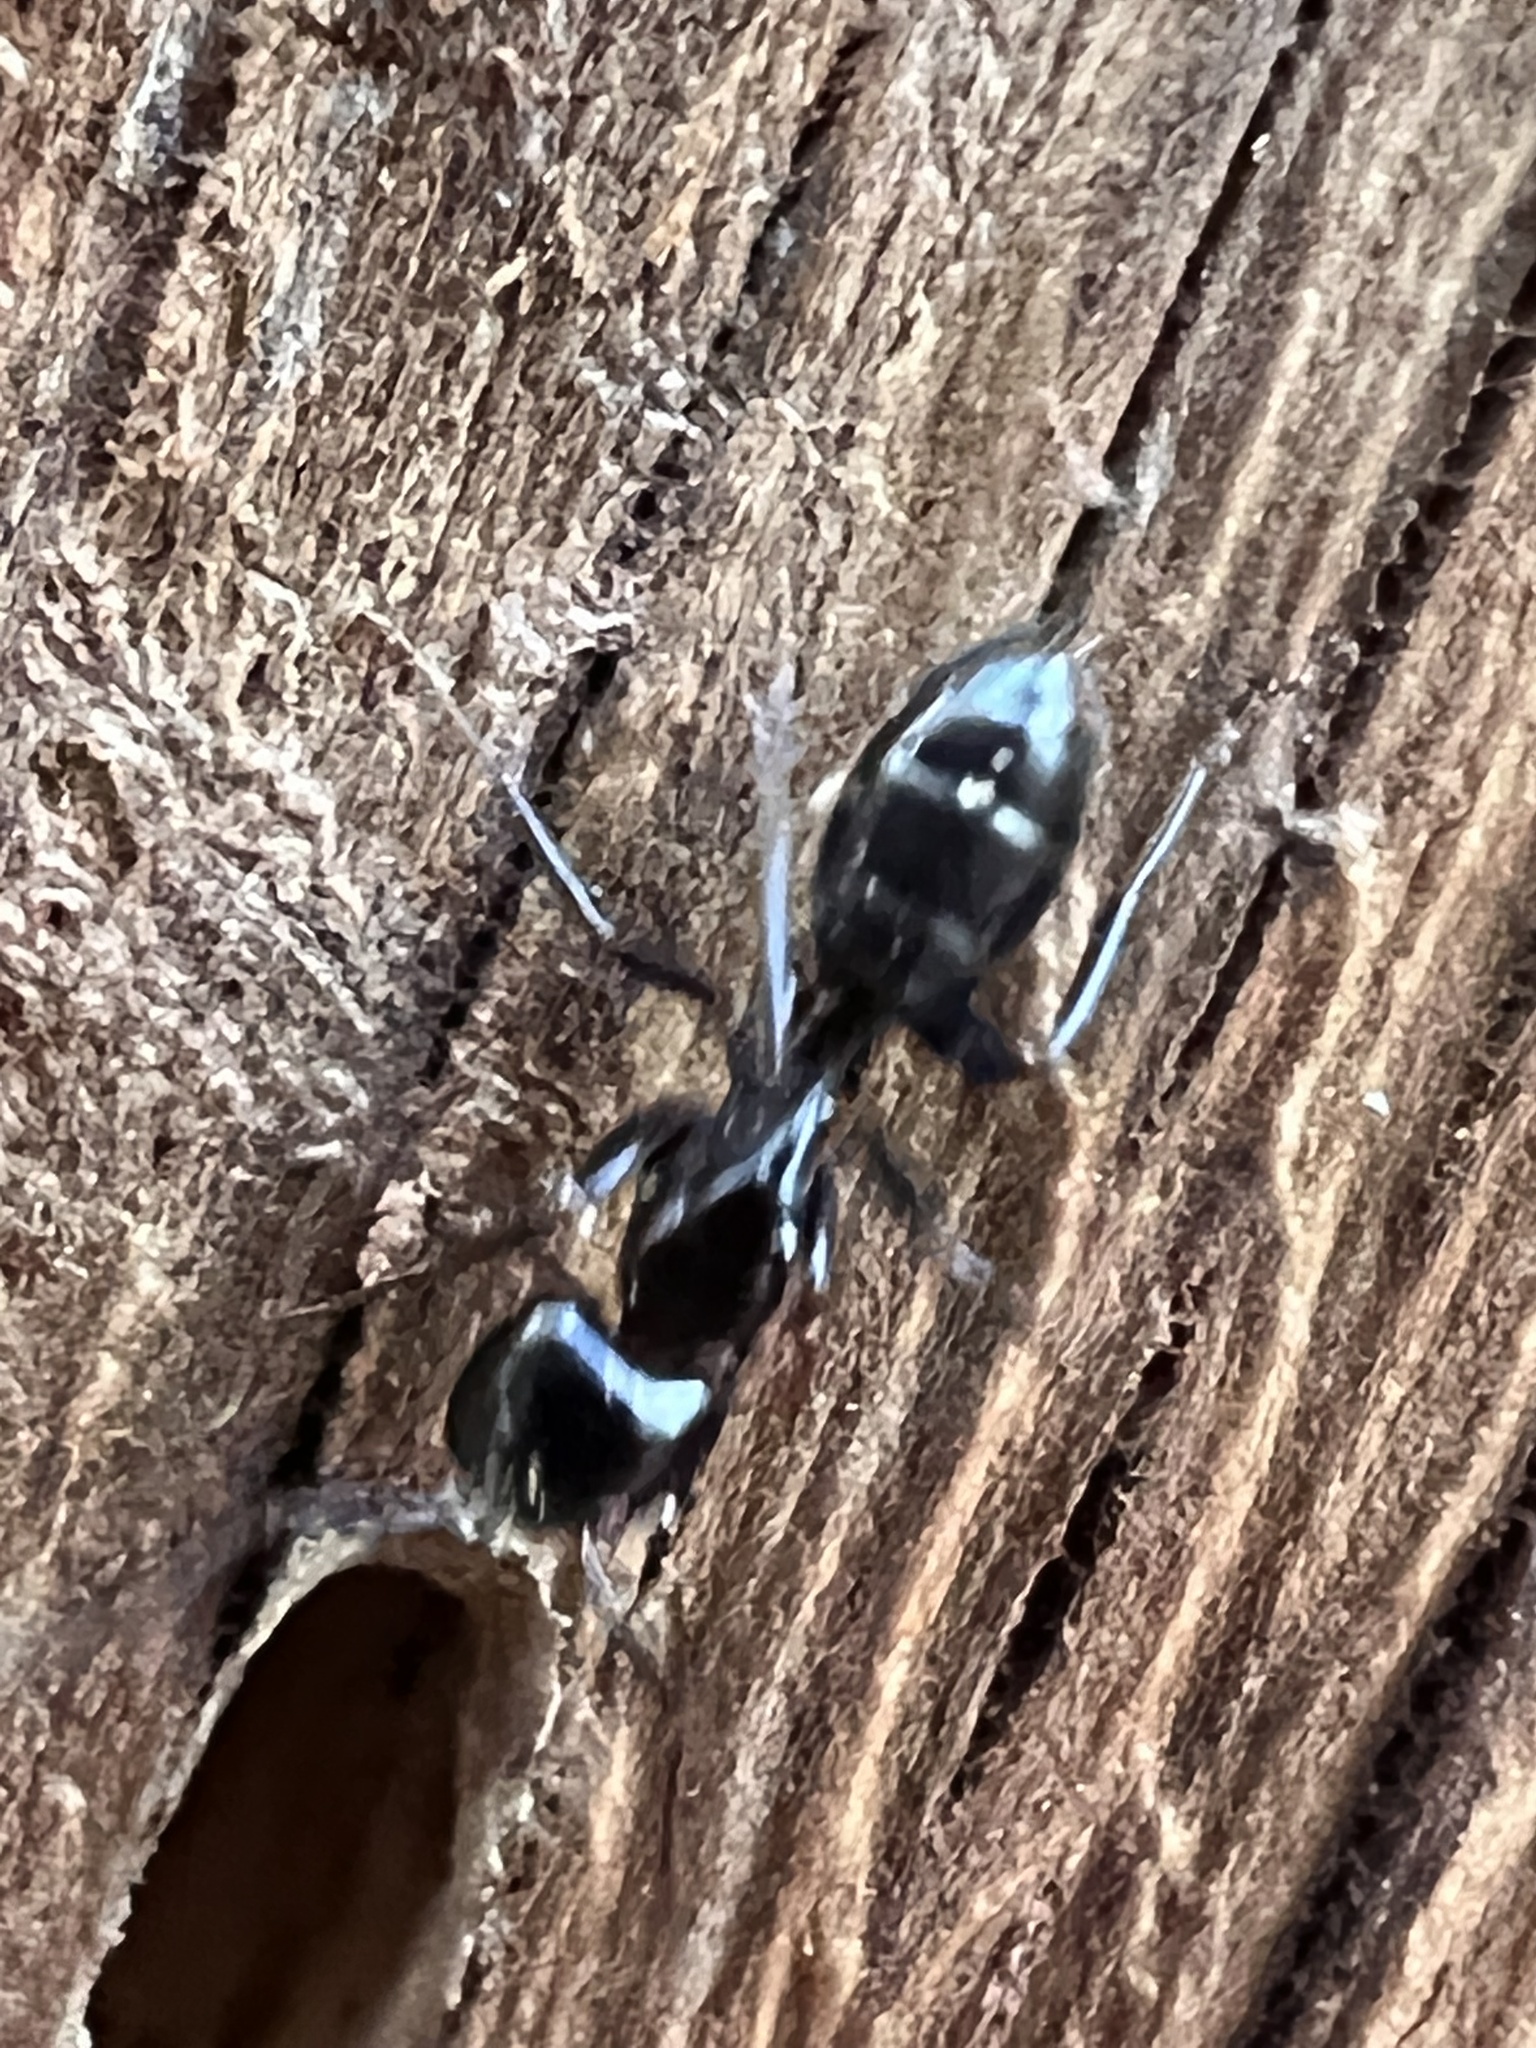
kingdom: Animalia
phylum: Arthropoda
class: Insecta
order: Hymenoptera
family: Formicidae
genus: Camponotus
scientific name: Camponotus nearcticus
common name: Smaller carpenter ant
